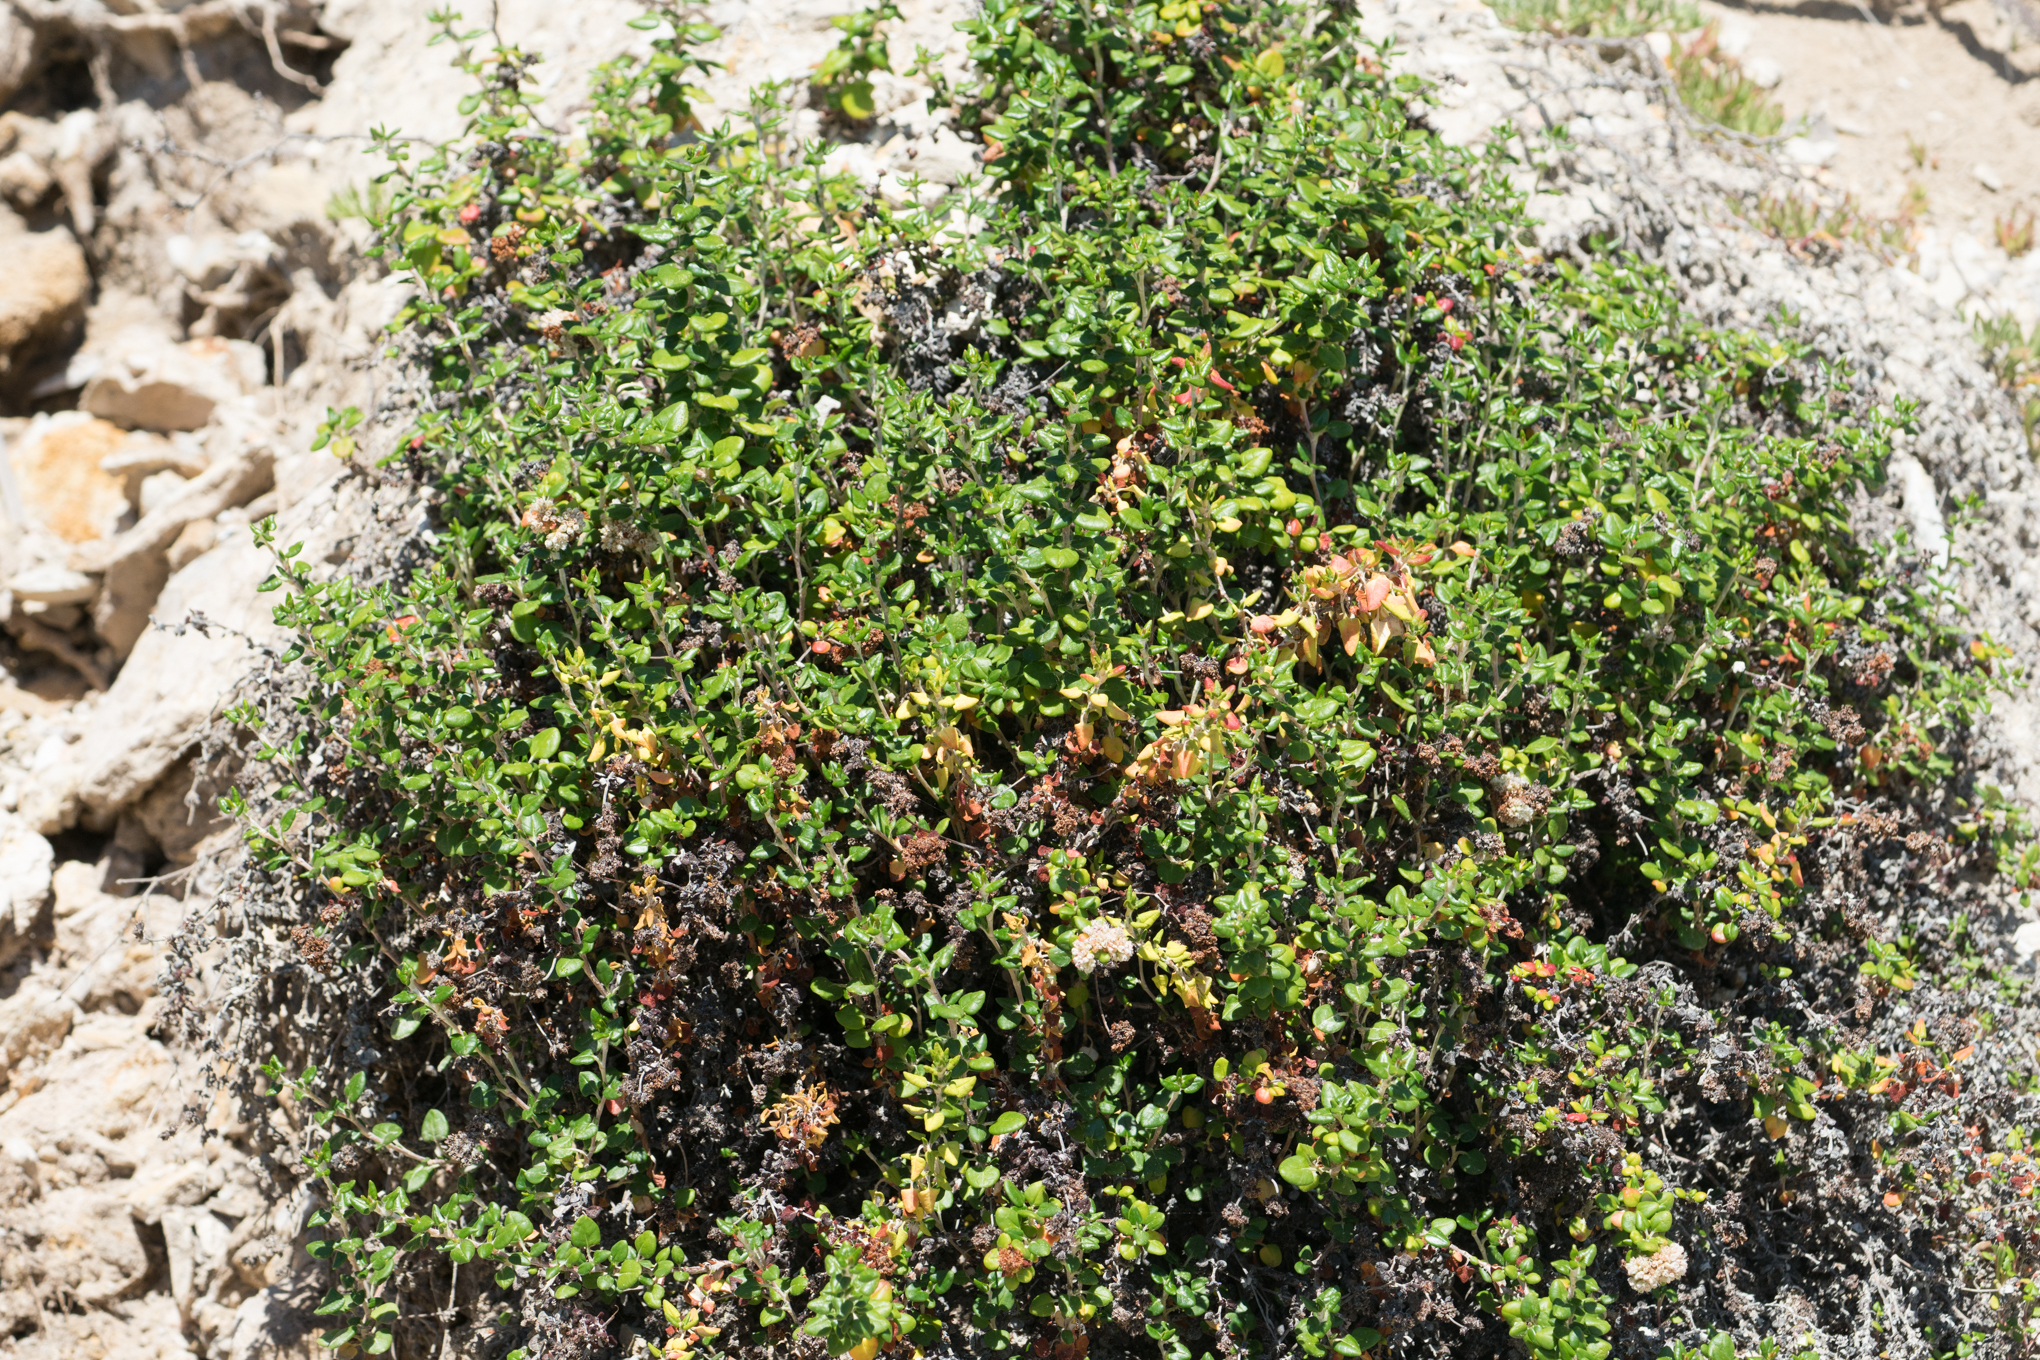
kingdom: Plantae
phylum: Tracheophyta
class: Magnoliopsida
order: Caryophyllales
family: Polygonaceae
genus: Eriogonum
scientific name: Eriogonum parvifolium
